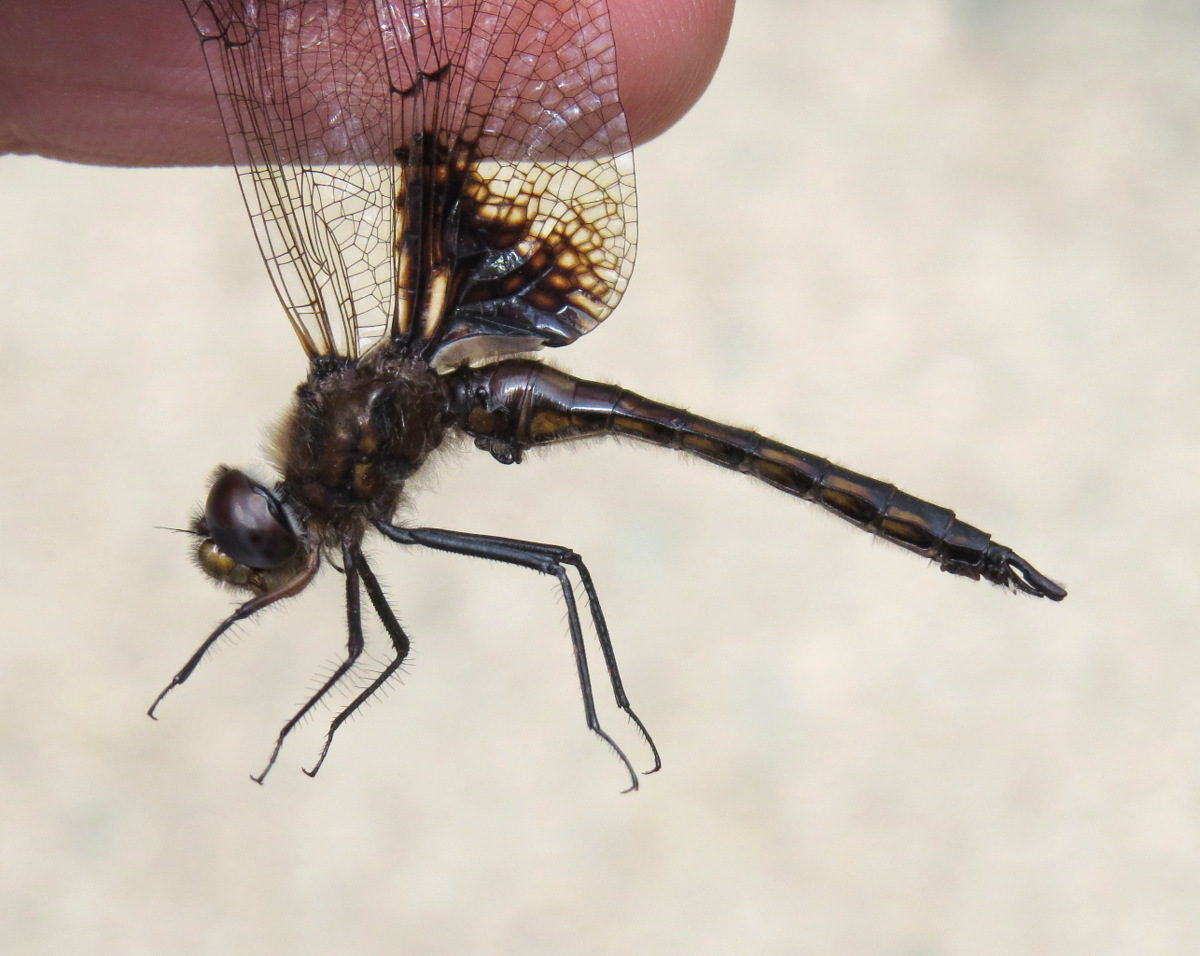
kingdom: Animalia
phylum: Arthropoda
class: Insecta
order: Odonata
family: Corduliidae
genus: Epitheca
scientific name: Epitheca cynosura
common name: Common baskettail
